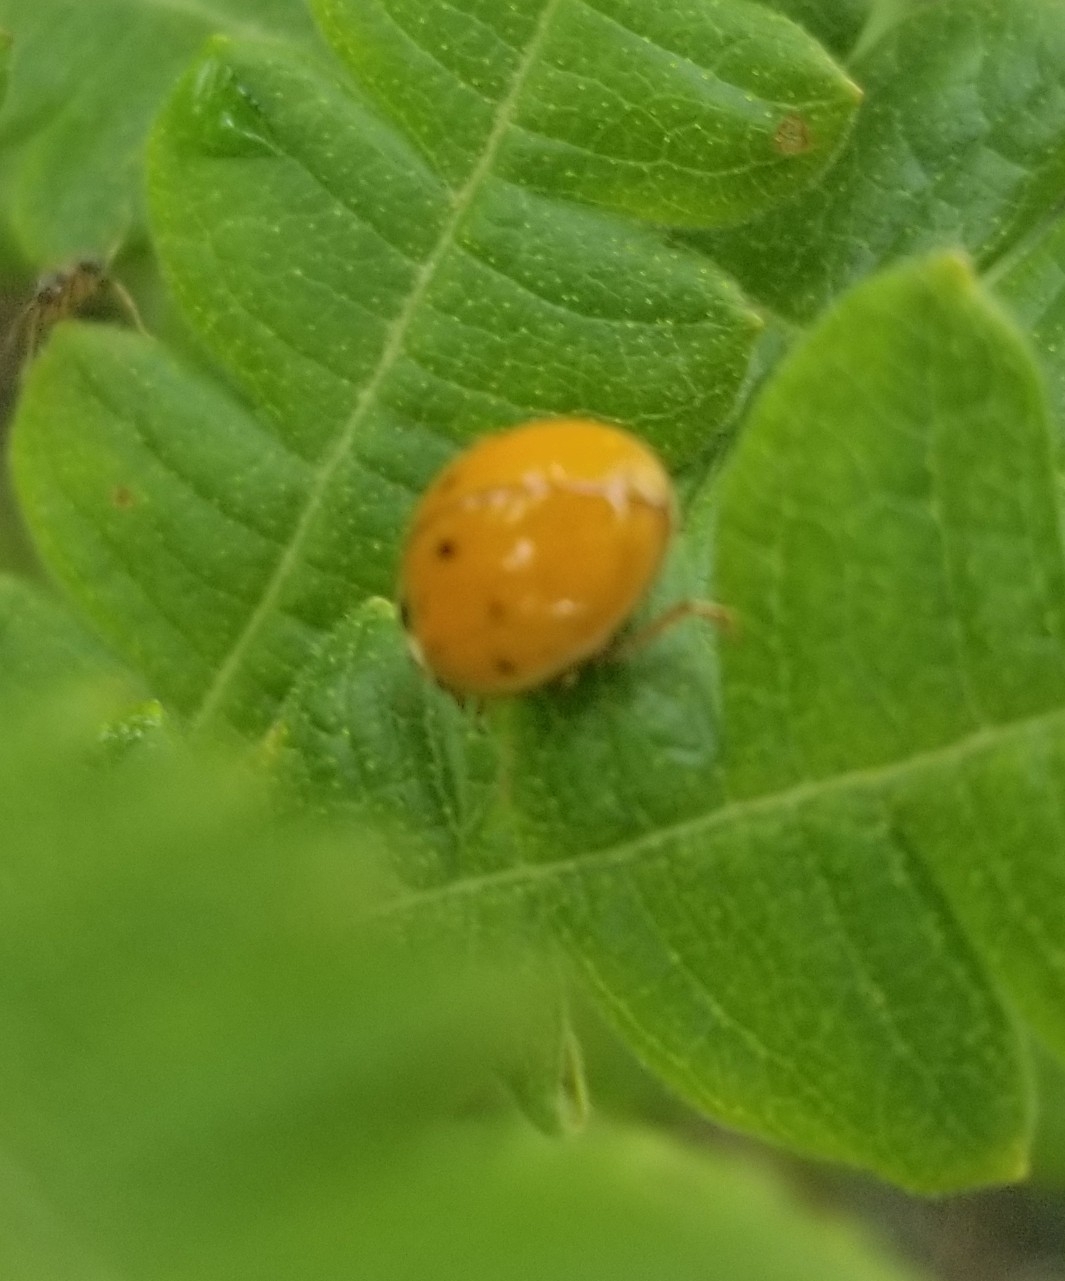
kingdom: Animalia
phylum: Arthropoda
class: Insecta
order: Coleoptera
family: Coccinellidae
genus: Harmonia
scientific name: Harmonia axyridis
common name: Harlequin ladybird
